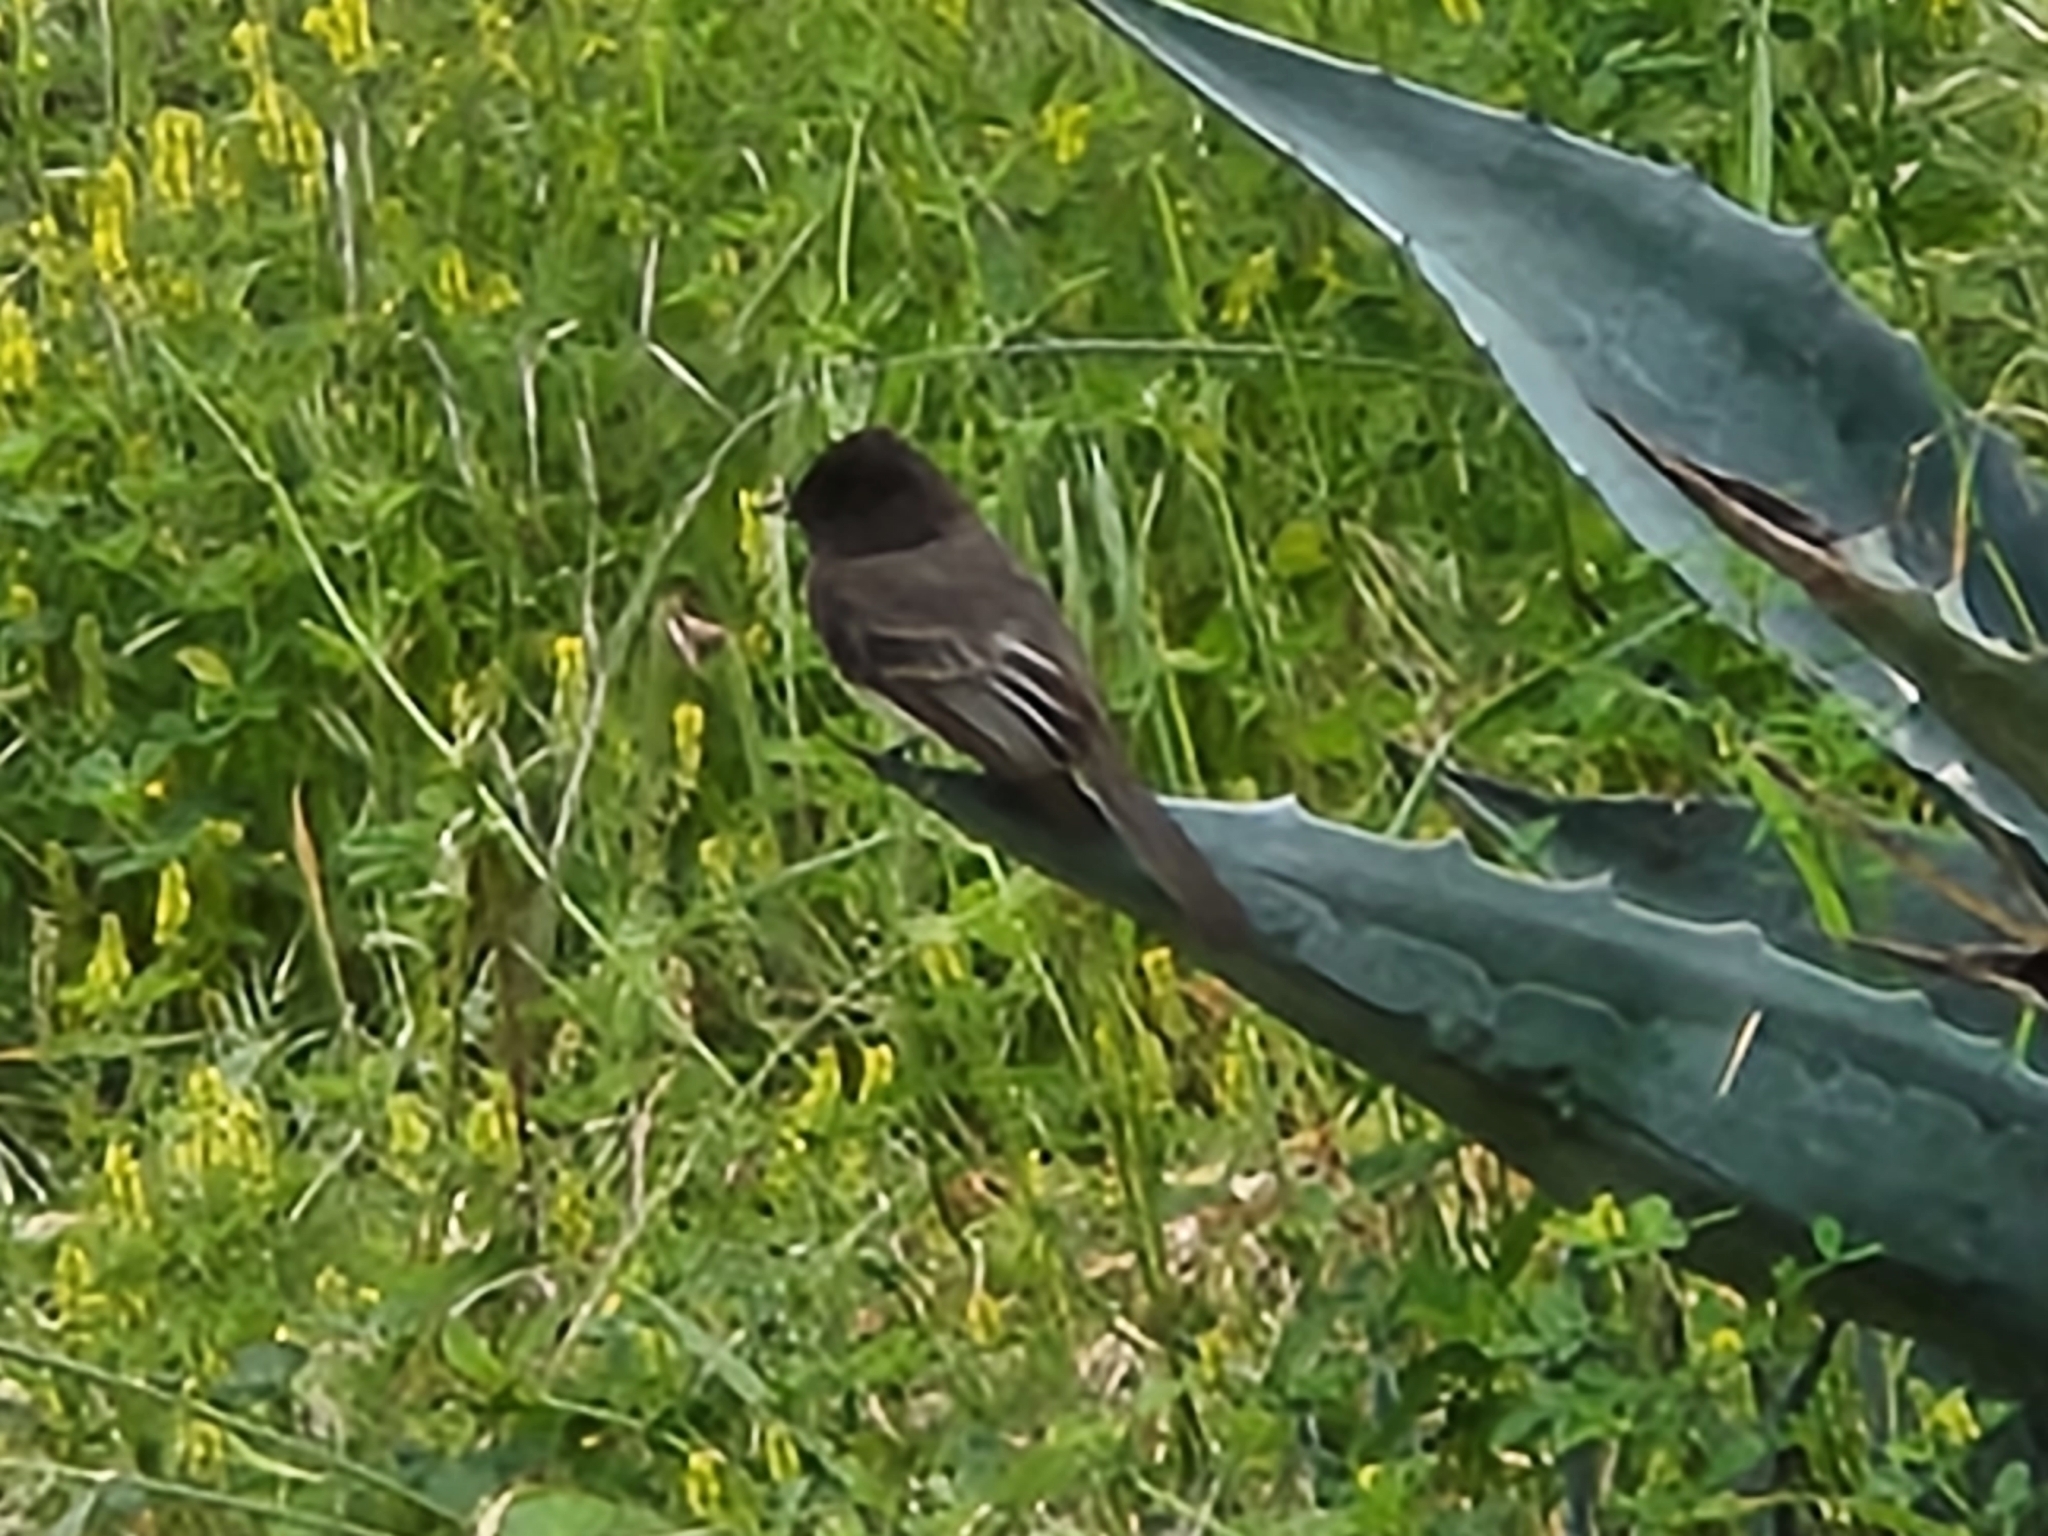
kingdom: Animalia
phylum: Chordata
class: Aves
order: Passeriformes
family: Tyrannidae
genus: Sayornis
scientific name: Sayornis nigricans
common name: Black phoebe
